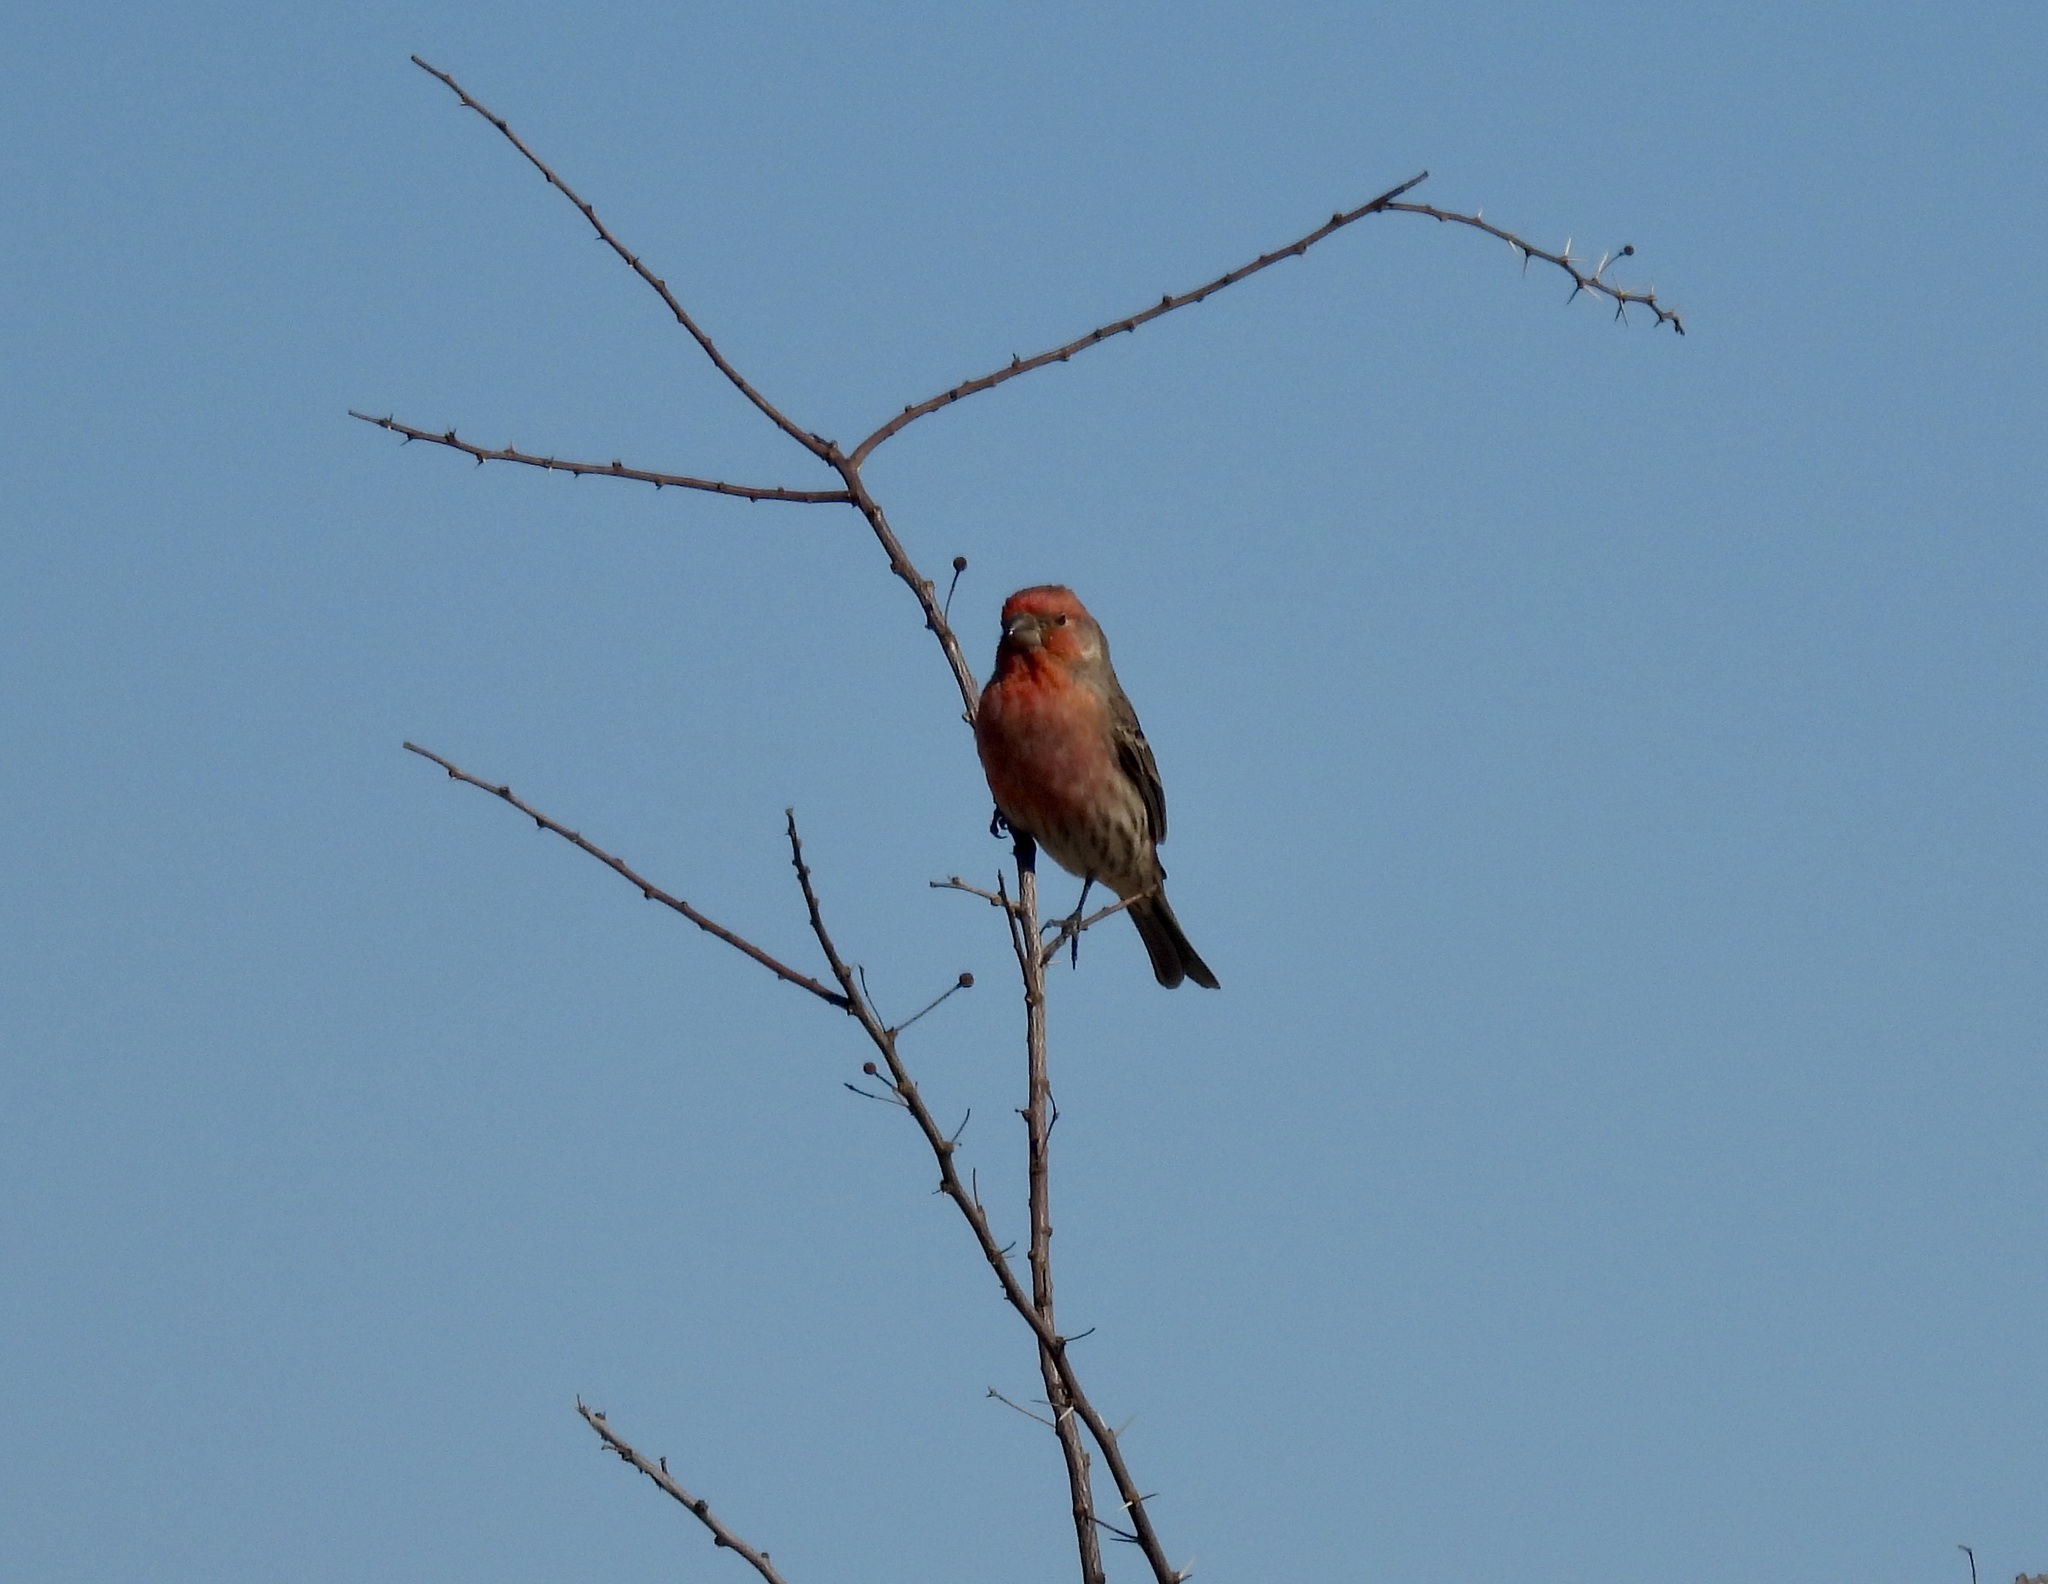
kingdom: Animalia
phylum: Chordata
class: Aves
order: Passeriformes
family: Fringillidae
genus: Haemorhous
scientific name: Haemorhous mexicanus
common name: House finch
